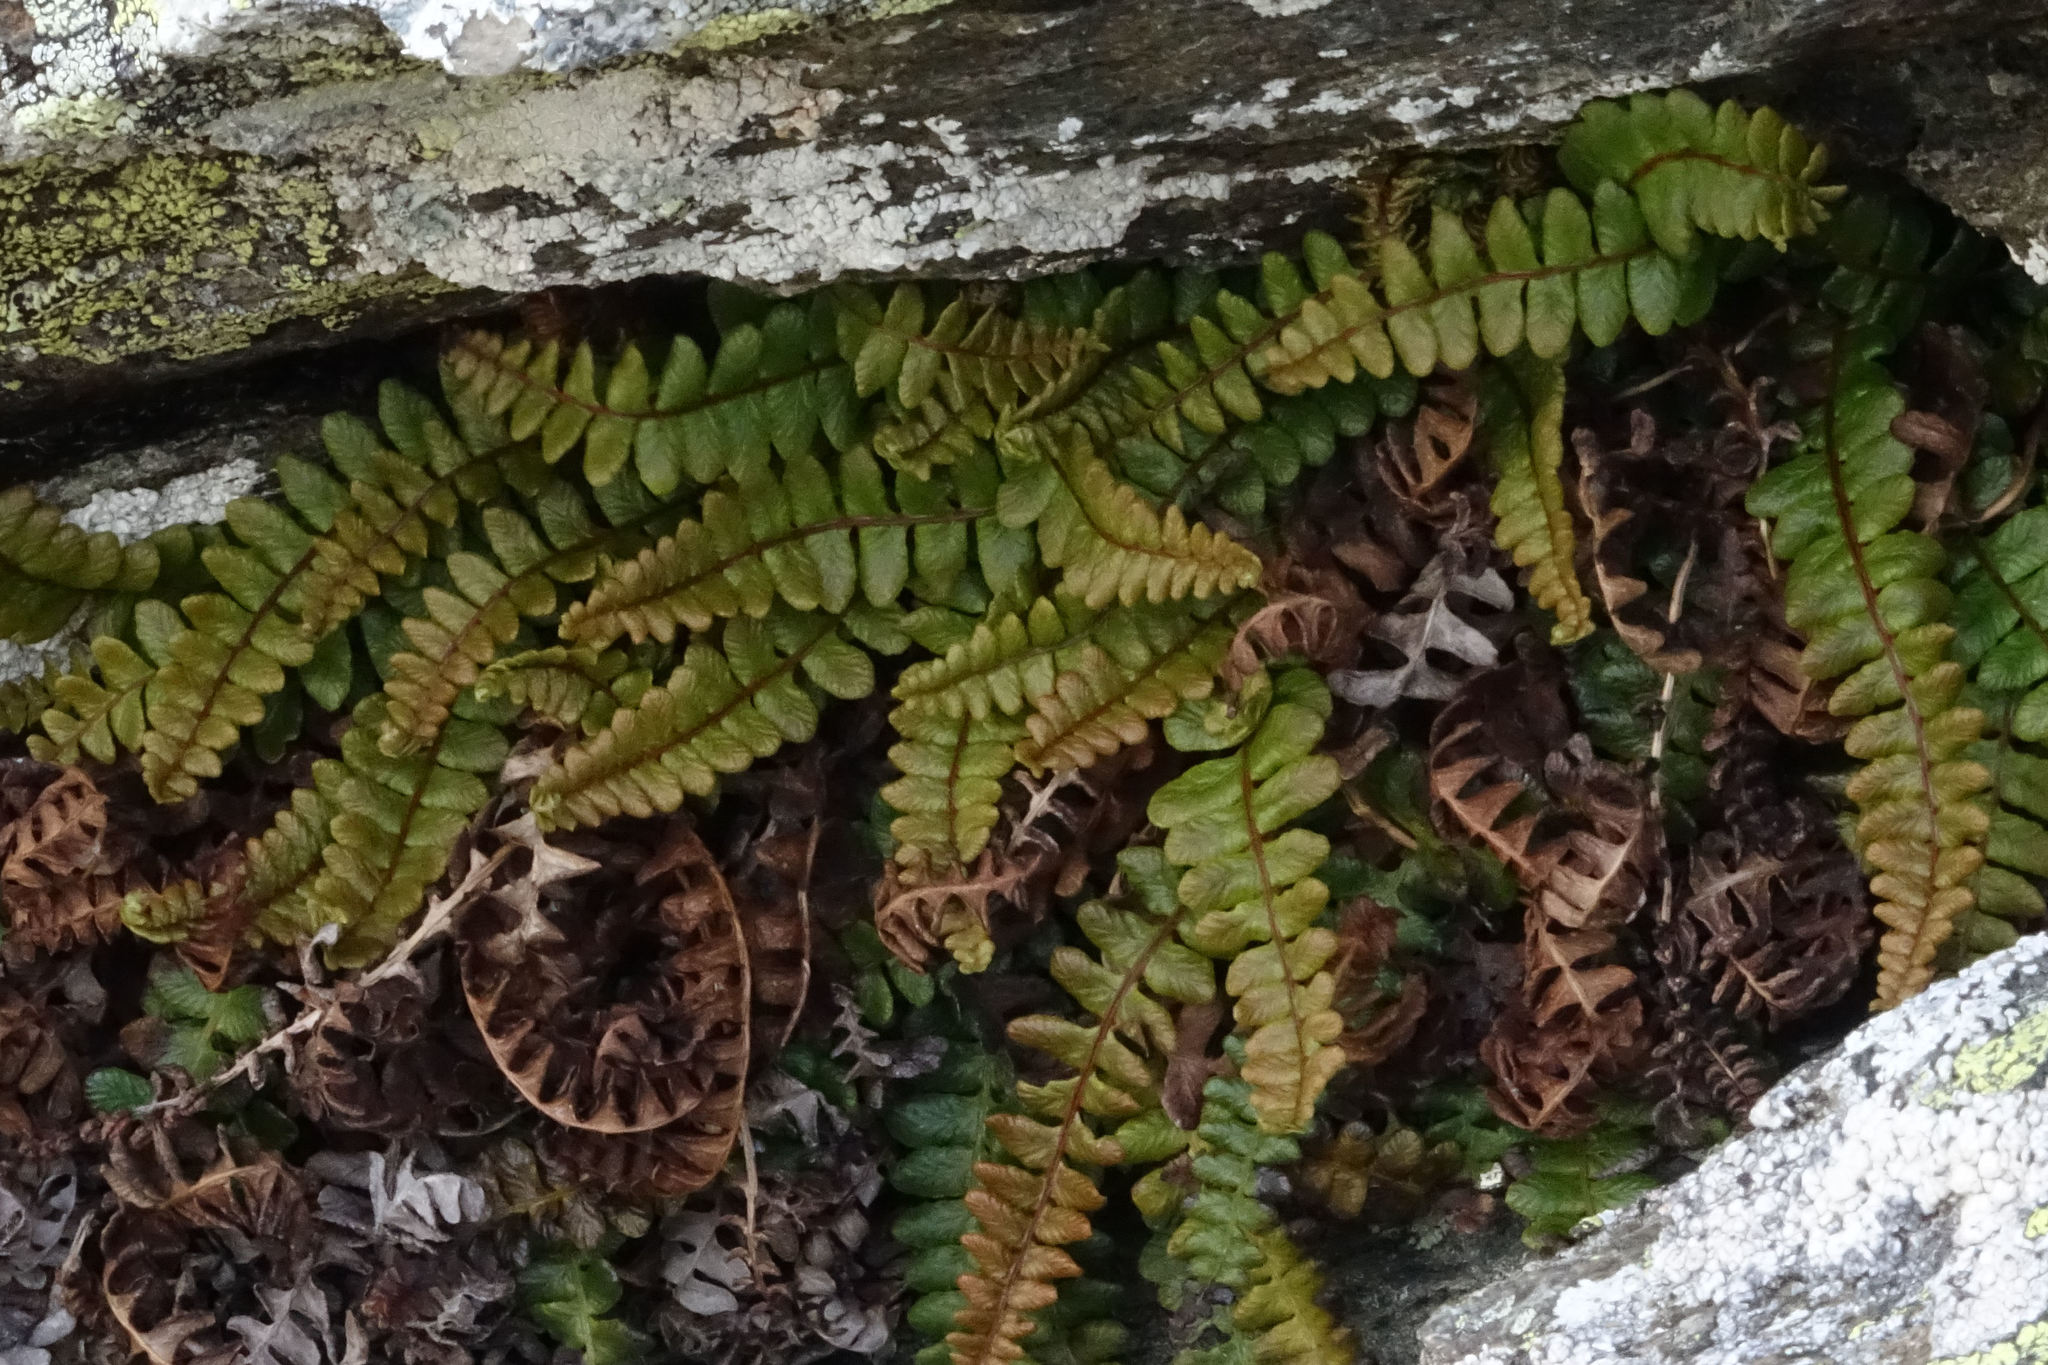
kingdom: Plantae
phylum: Tracheophyta
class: Polypodiopsida
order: Polypodiales
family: Blechnaceae
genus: Austroblechnum
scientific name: Austroblechnum penna-marina
